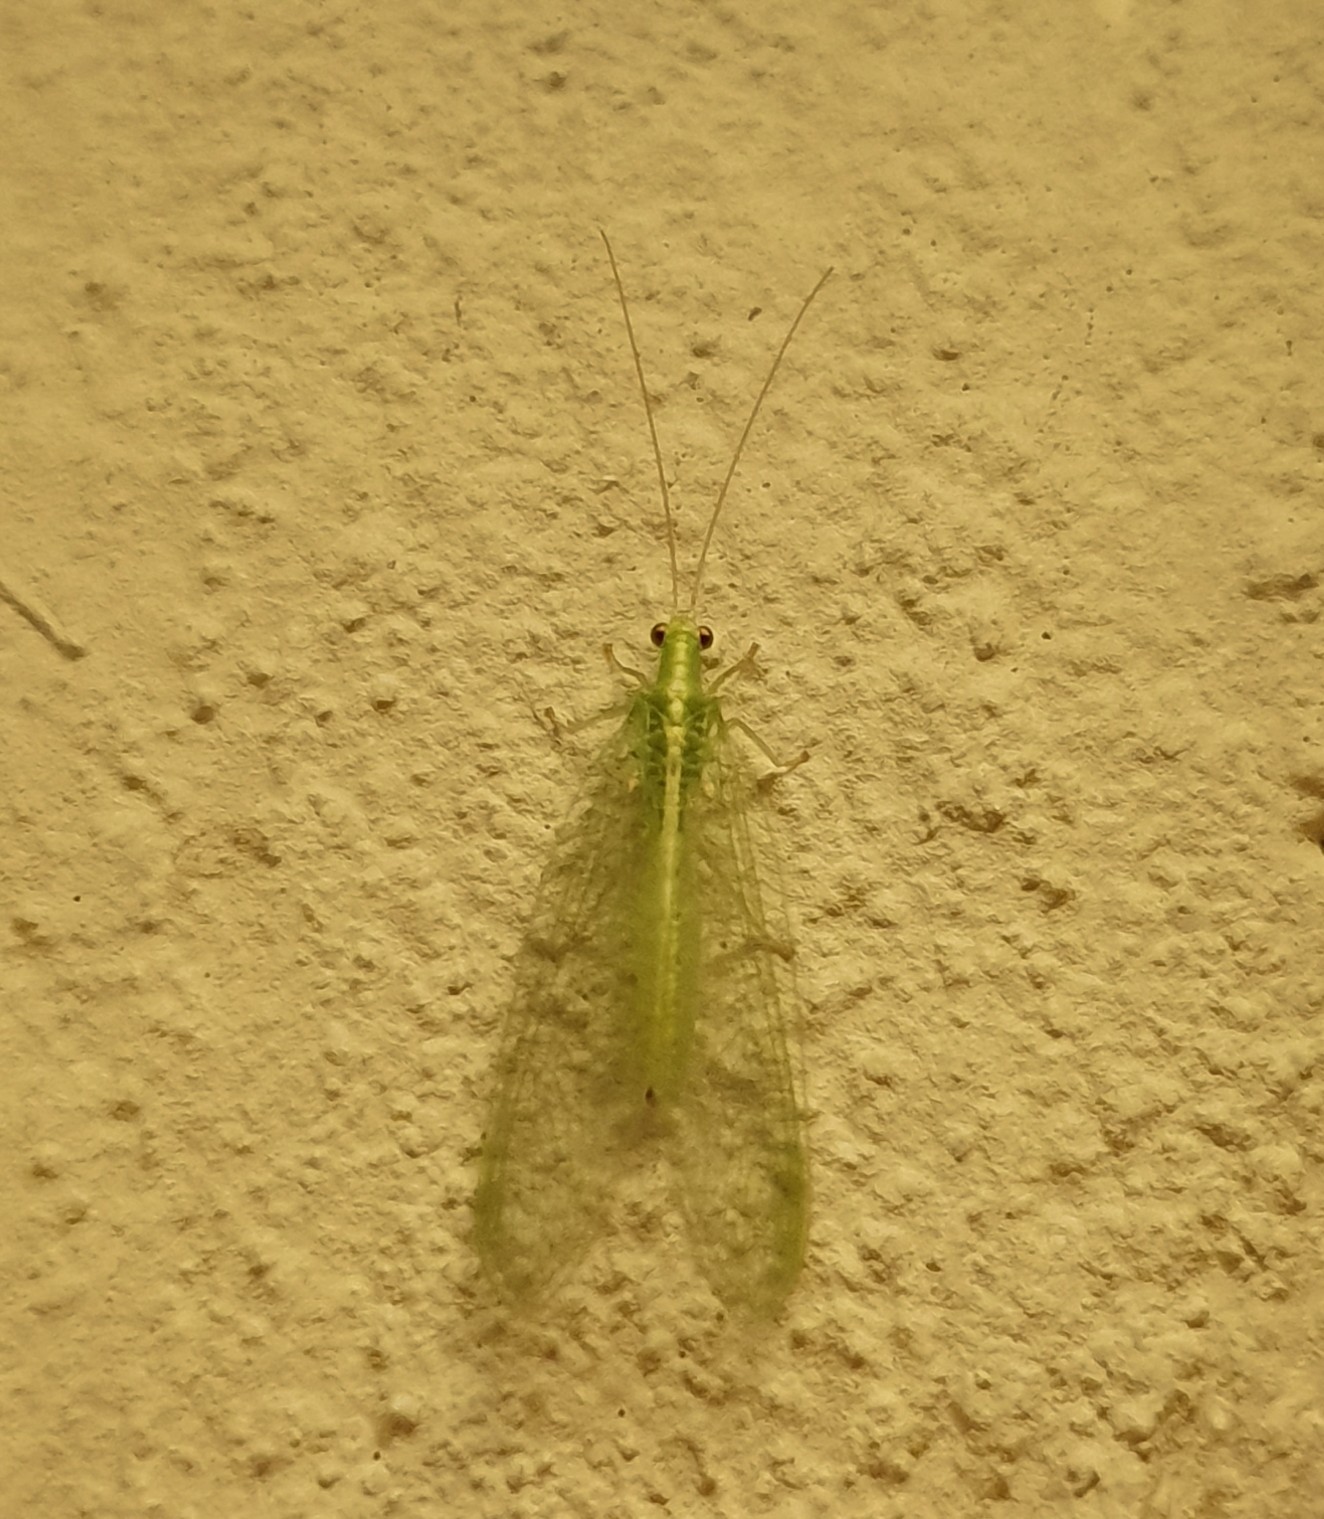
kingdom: Animalia
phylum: Arthropoda
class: Insecta
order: Neuroptera
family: Chrysopidae
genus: Chrysoperla
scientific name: Chrysoperla
